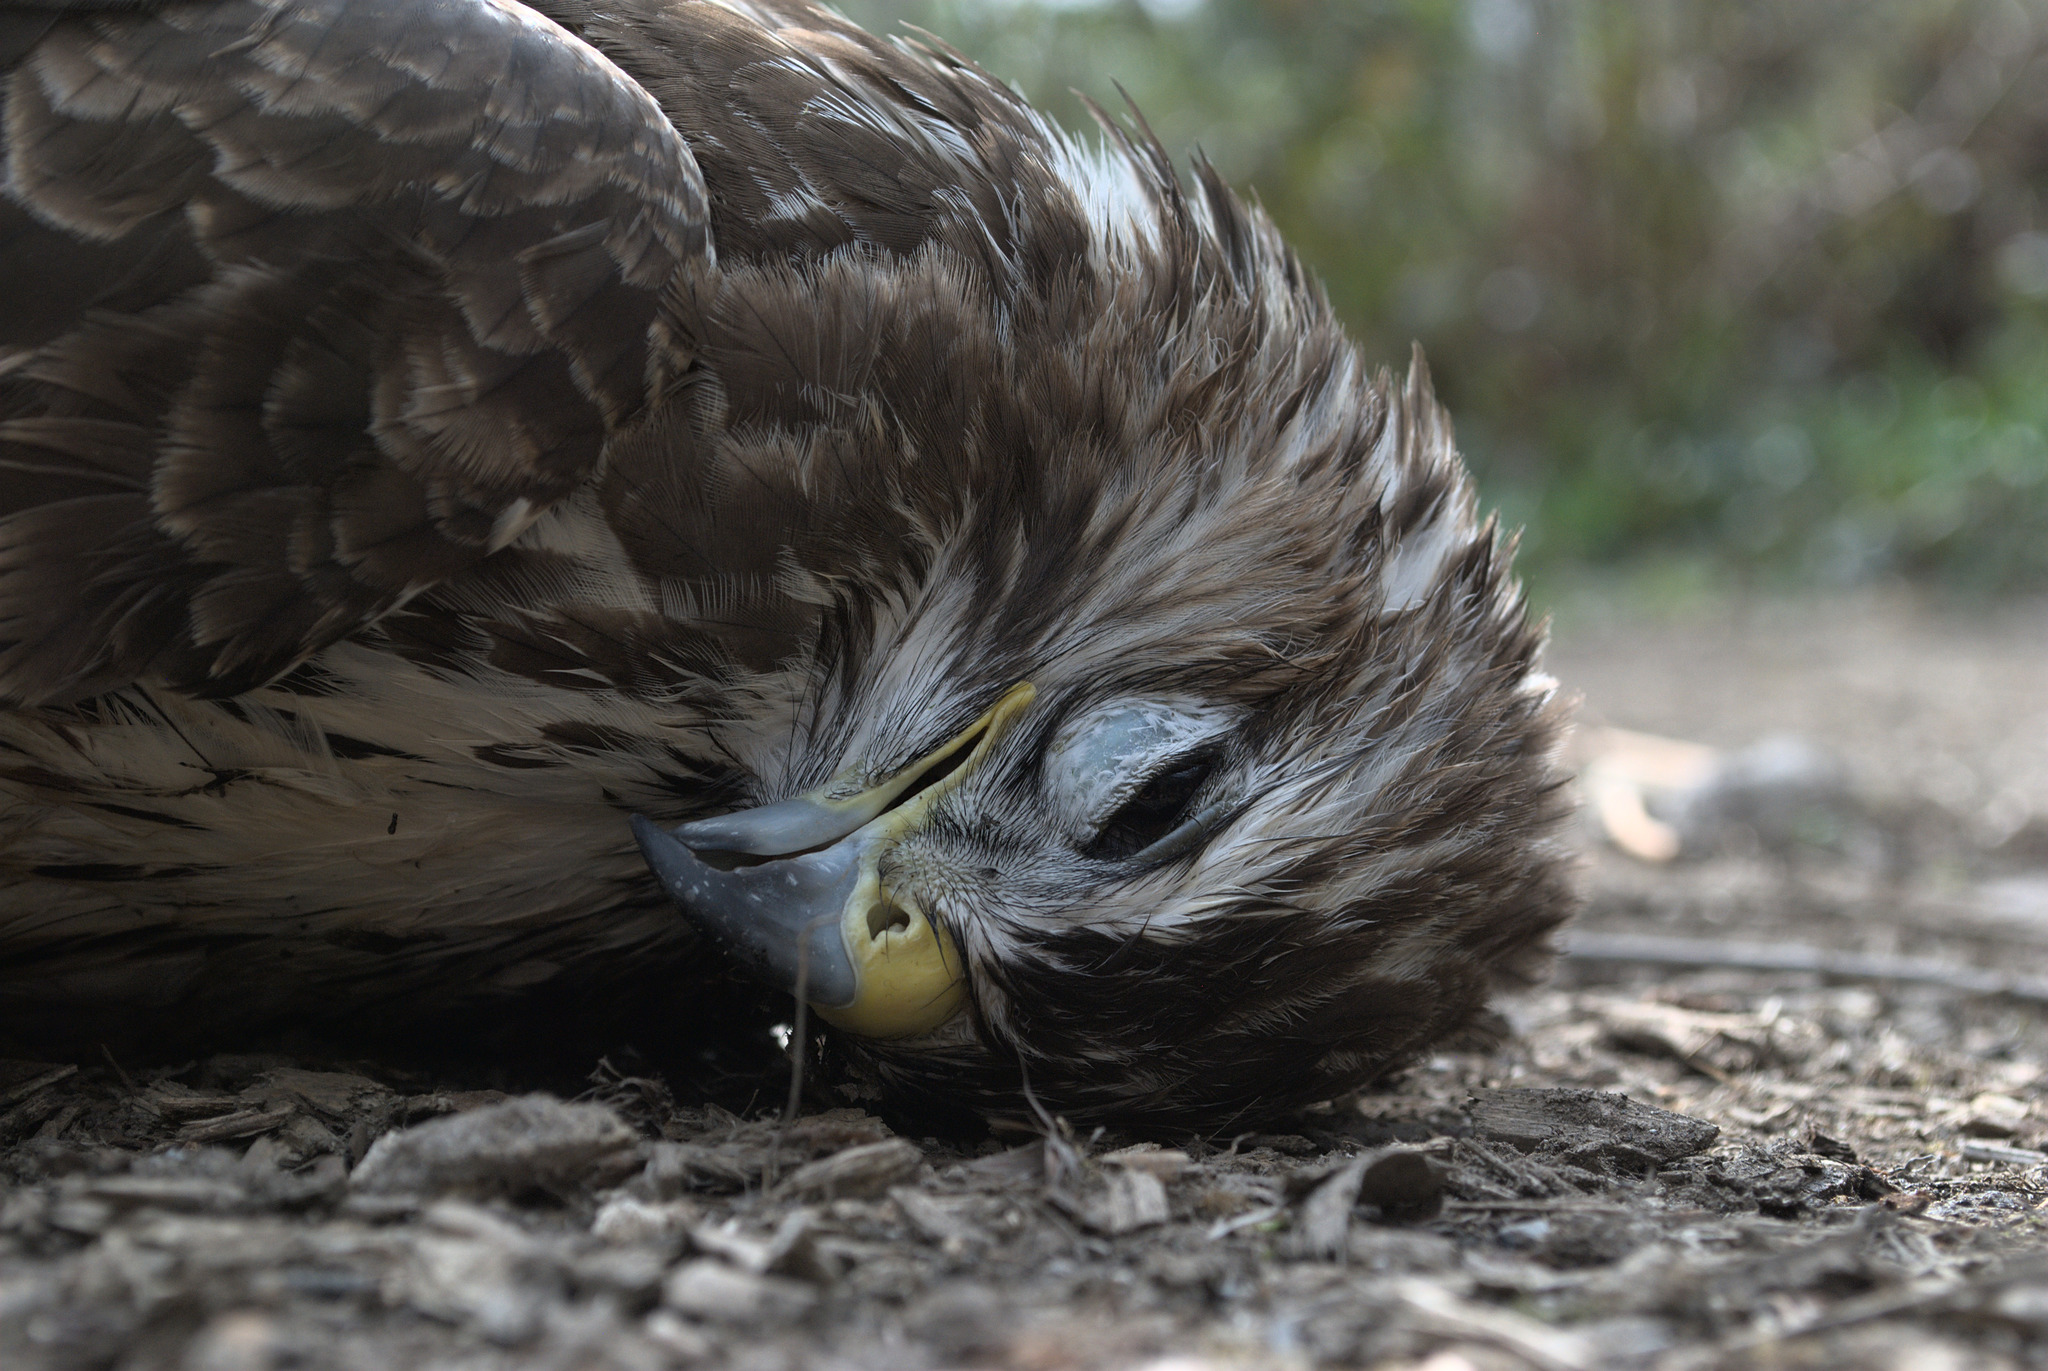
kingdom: Animalia
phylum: Chordata
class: Aves
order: Accipitriformes
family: Accipitridae
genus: Buteo
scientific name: Buteo buteo
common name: Common buzzard
